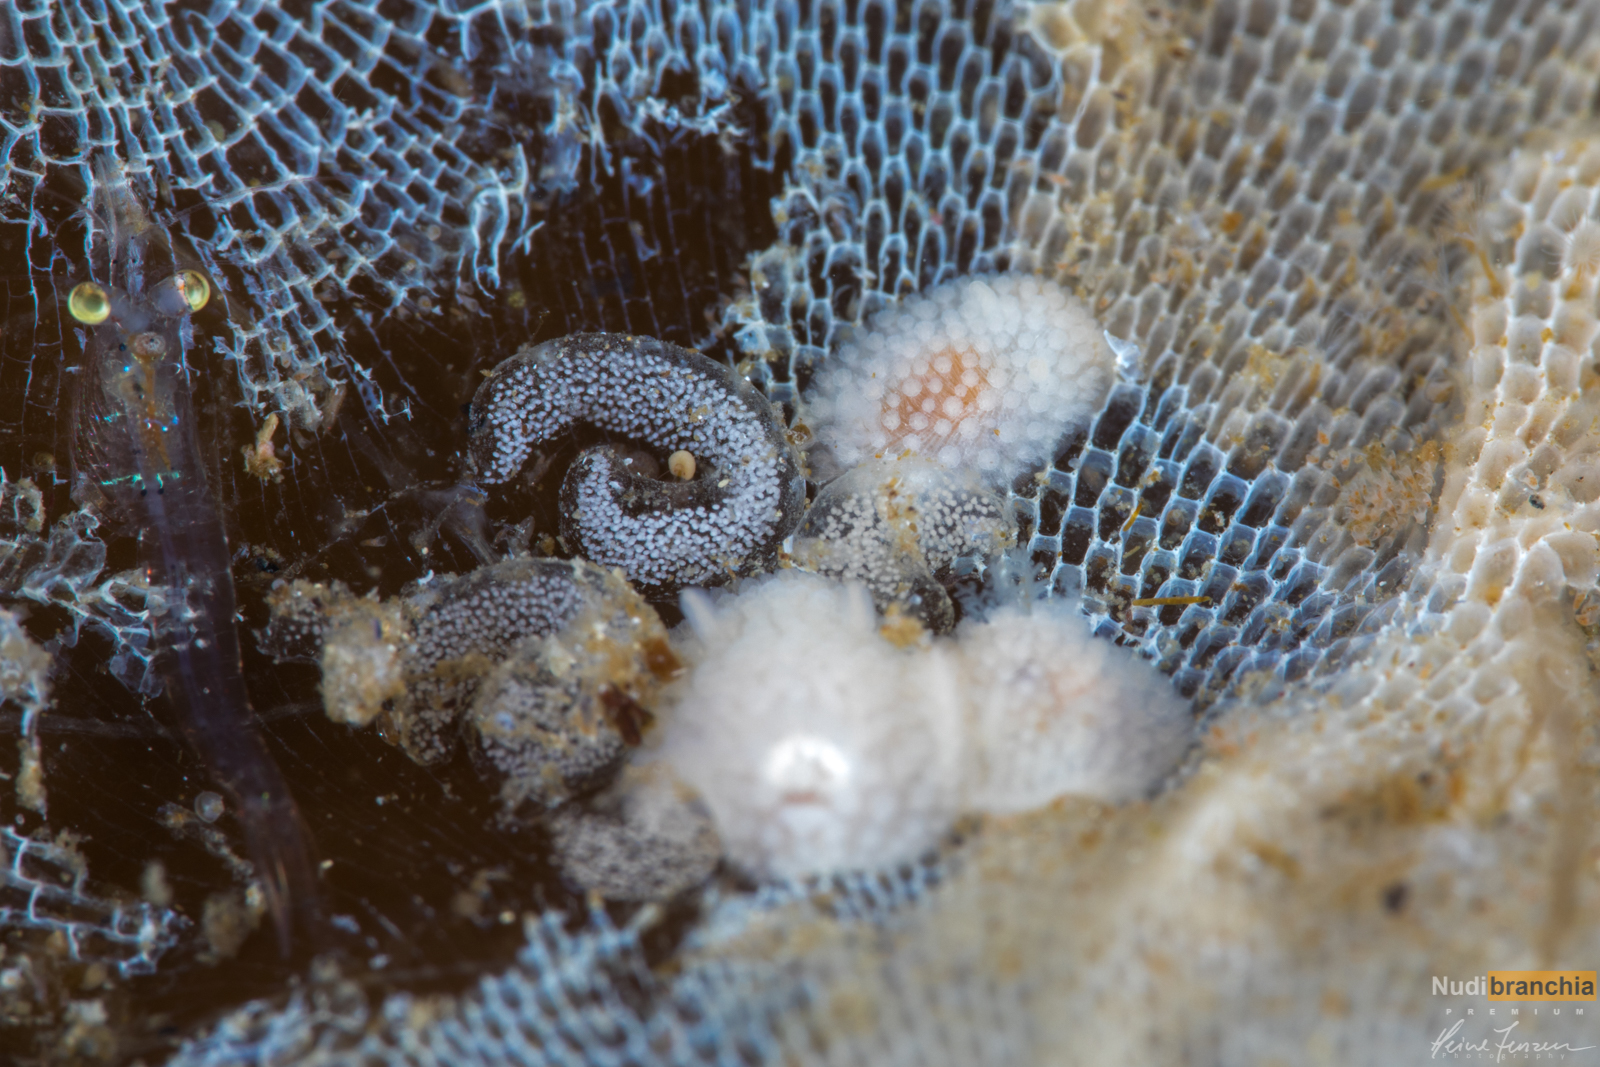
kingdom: Animalia
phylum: Mollusca
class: Gastropoda
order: Nudibranchia
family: Onchidorididae
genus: Onchidoris
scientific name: Onchidoris muricata
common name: Rough doris
